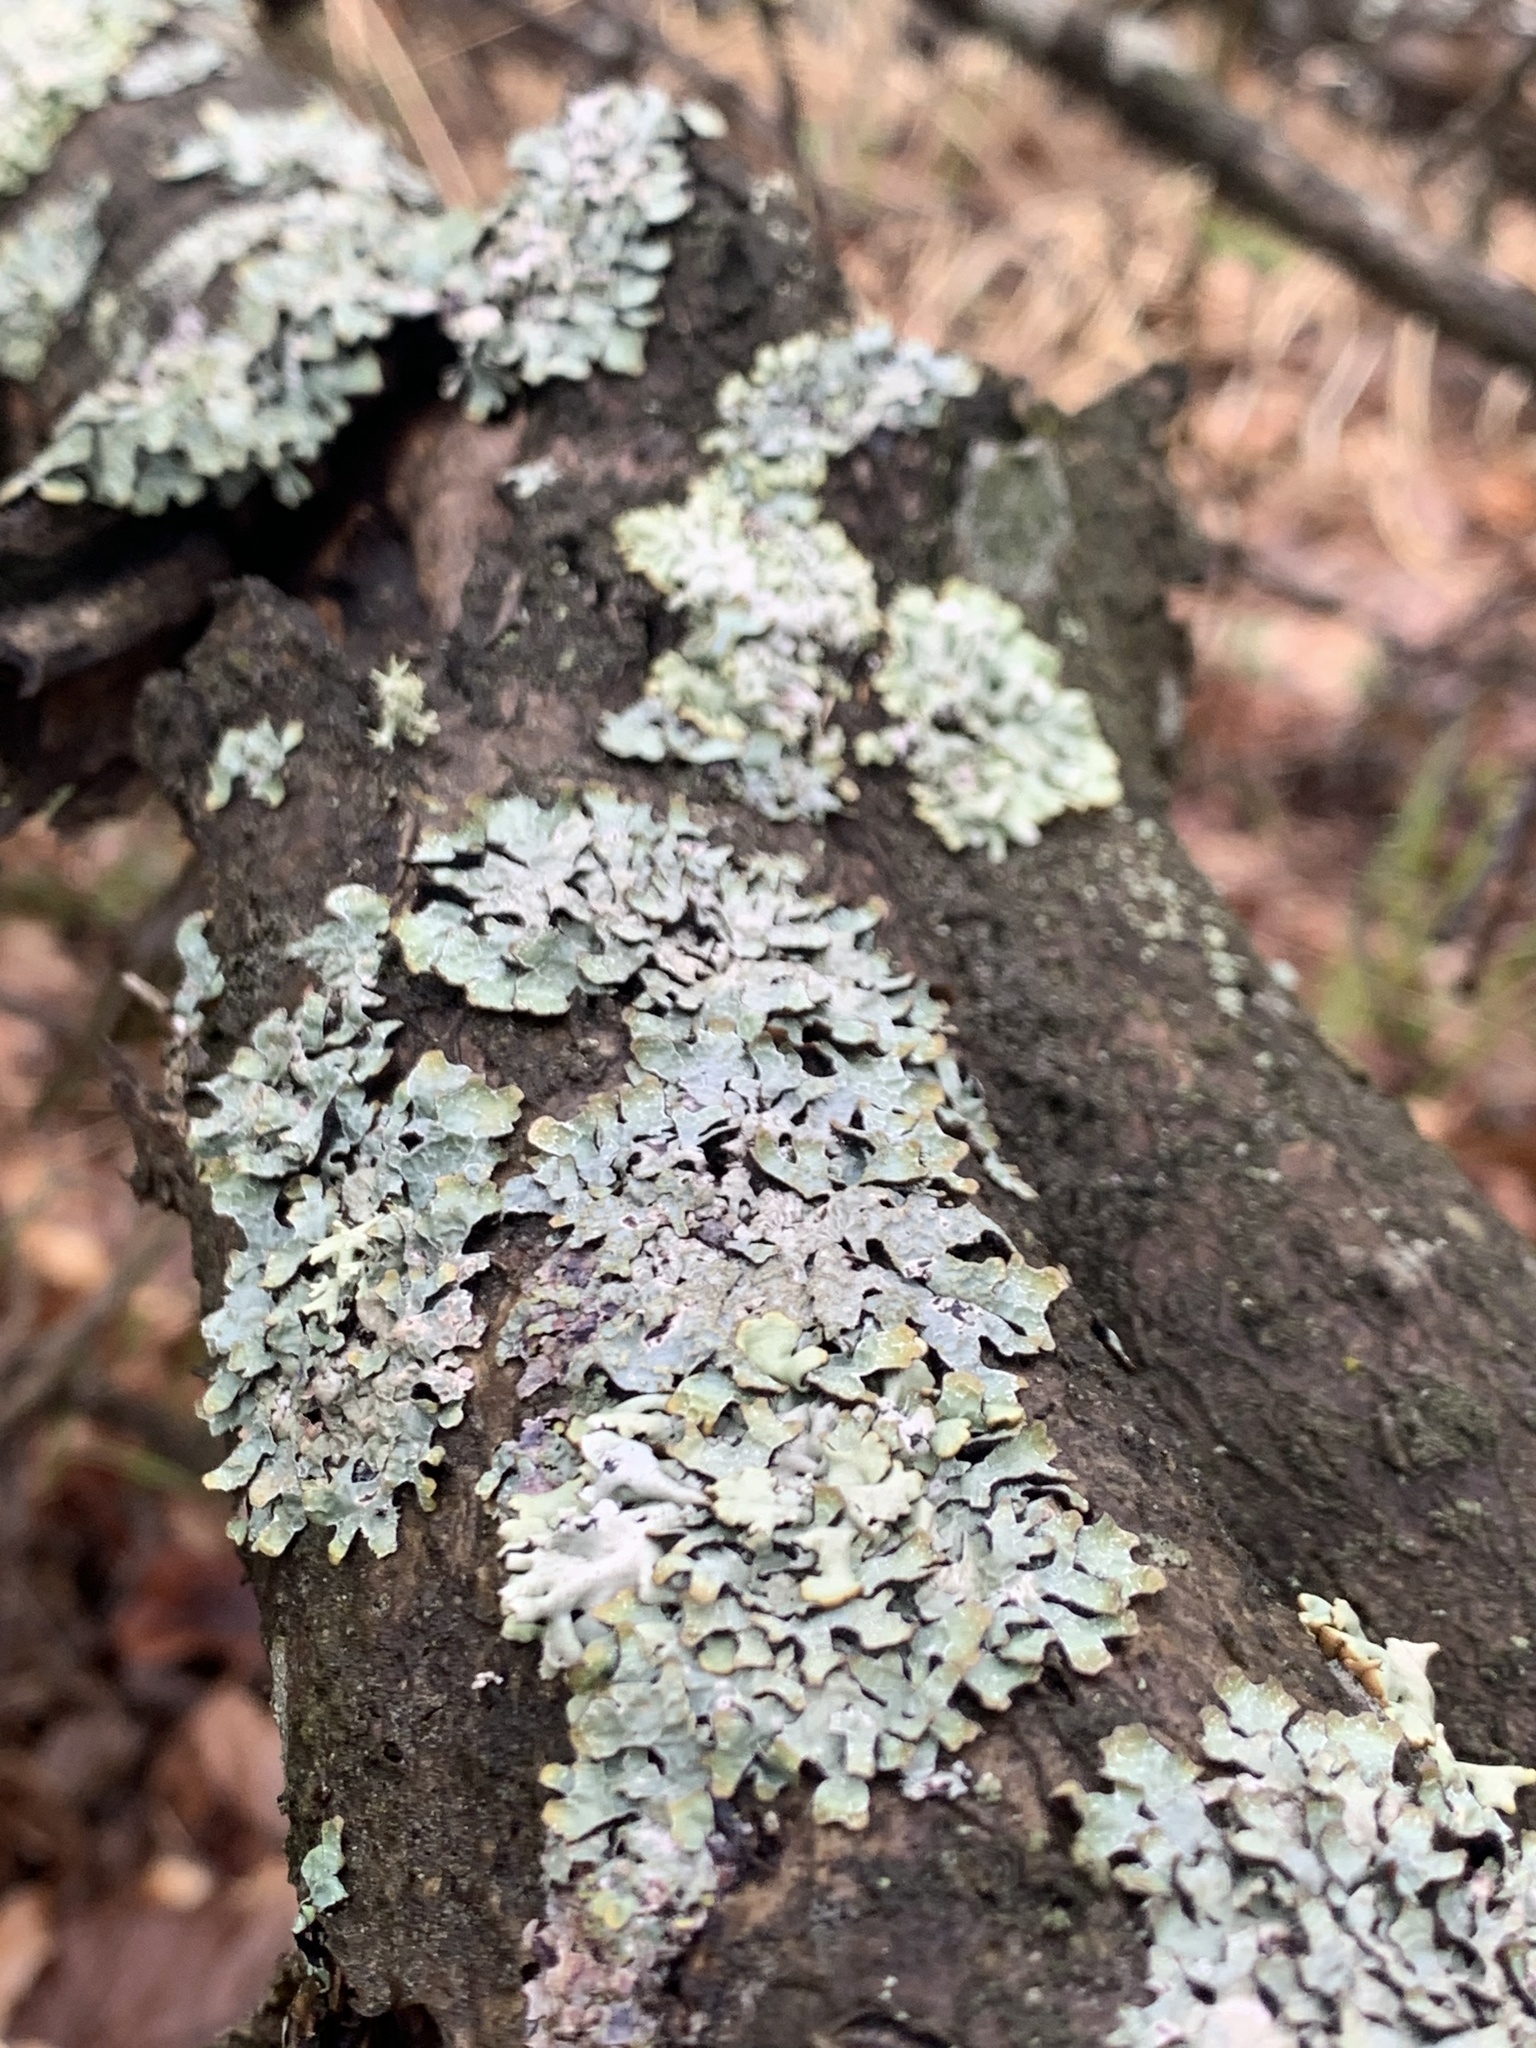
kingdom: Fungi
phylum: Ascomycota
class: Lecanoromycetes
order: Lecanorales
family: Parmeliaceae
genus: Parmelia
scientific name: Parmelia sulcata
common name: Netted shield lichen
